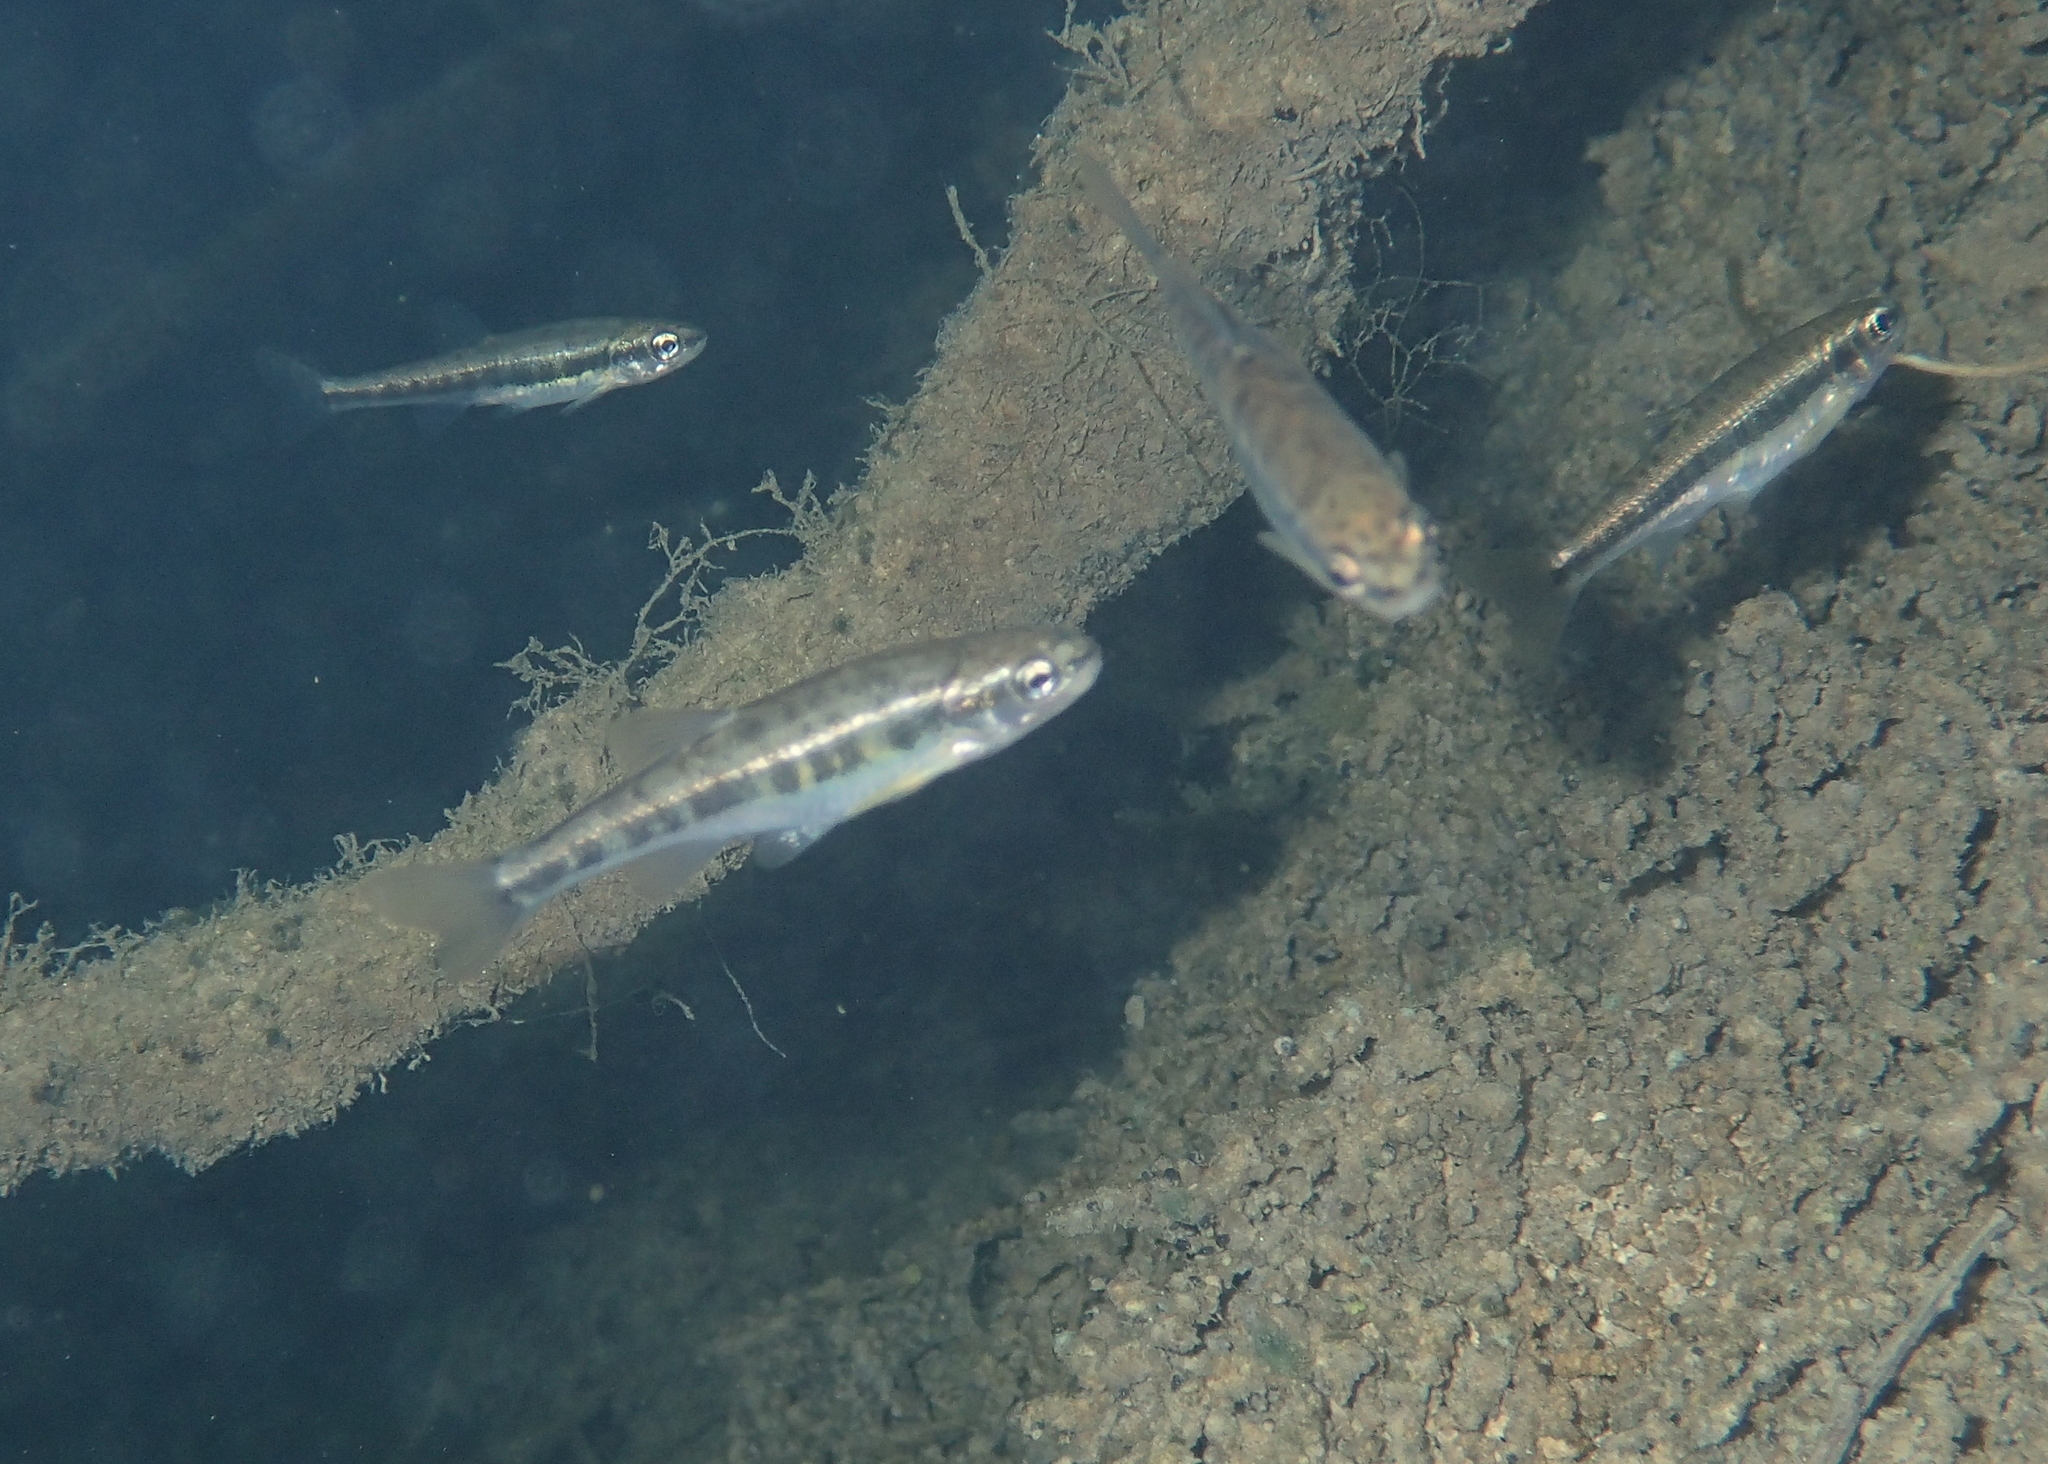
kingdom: Animalia
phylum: Chordata
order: Cypriniformes
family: Cyprinidae
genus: Phoxinus
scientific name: Phoxinus septimaniae
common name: Languedoc minnow
